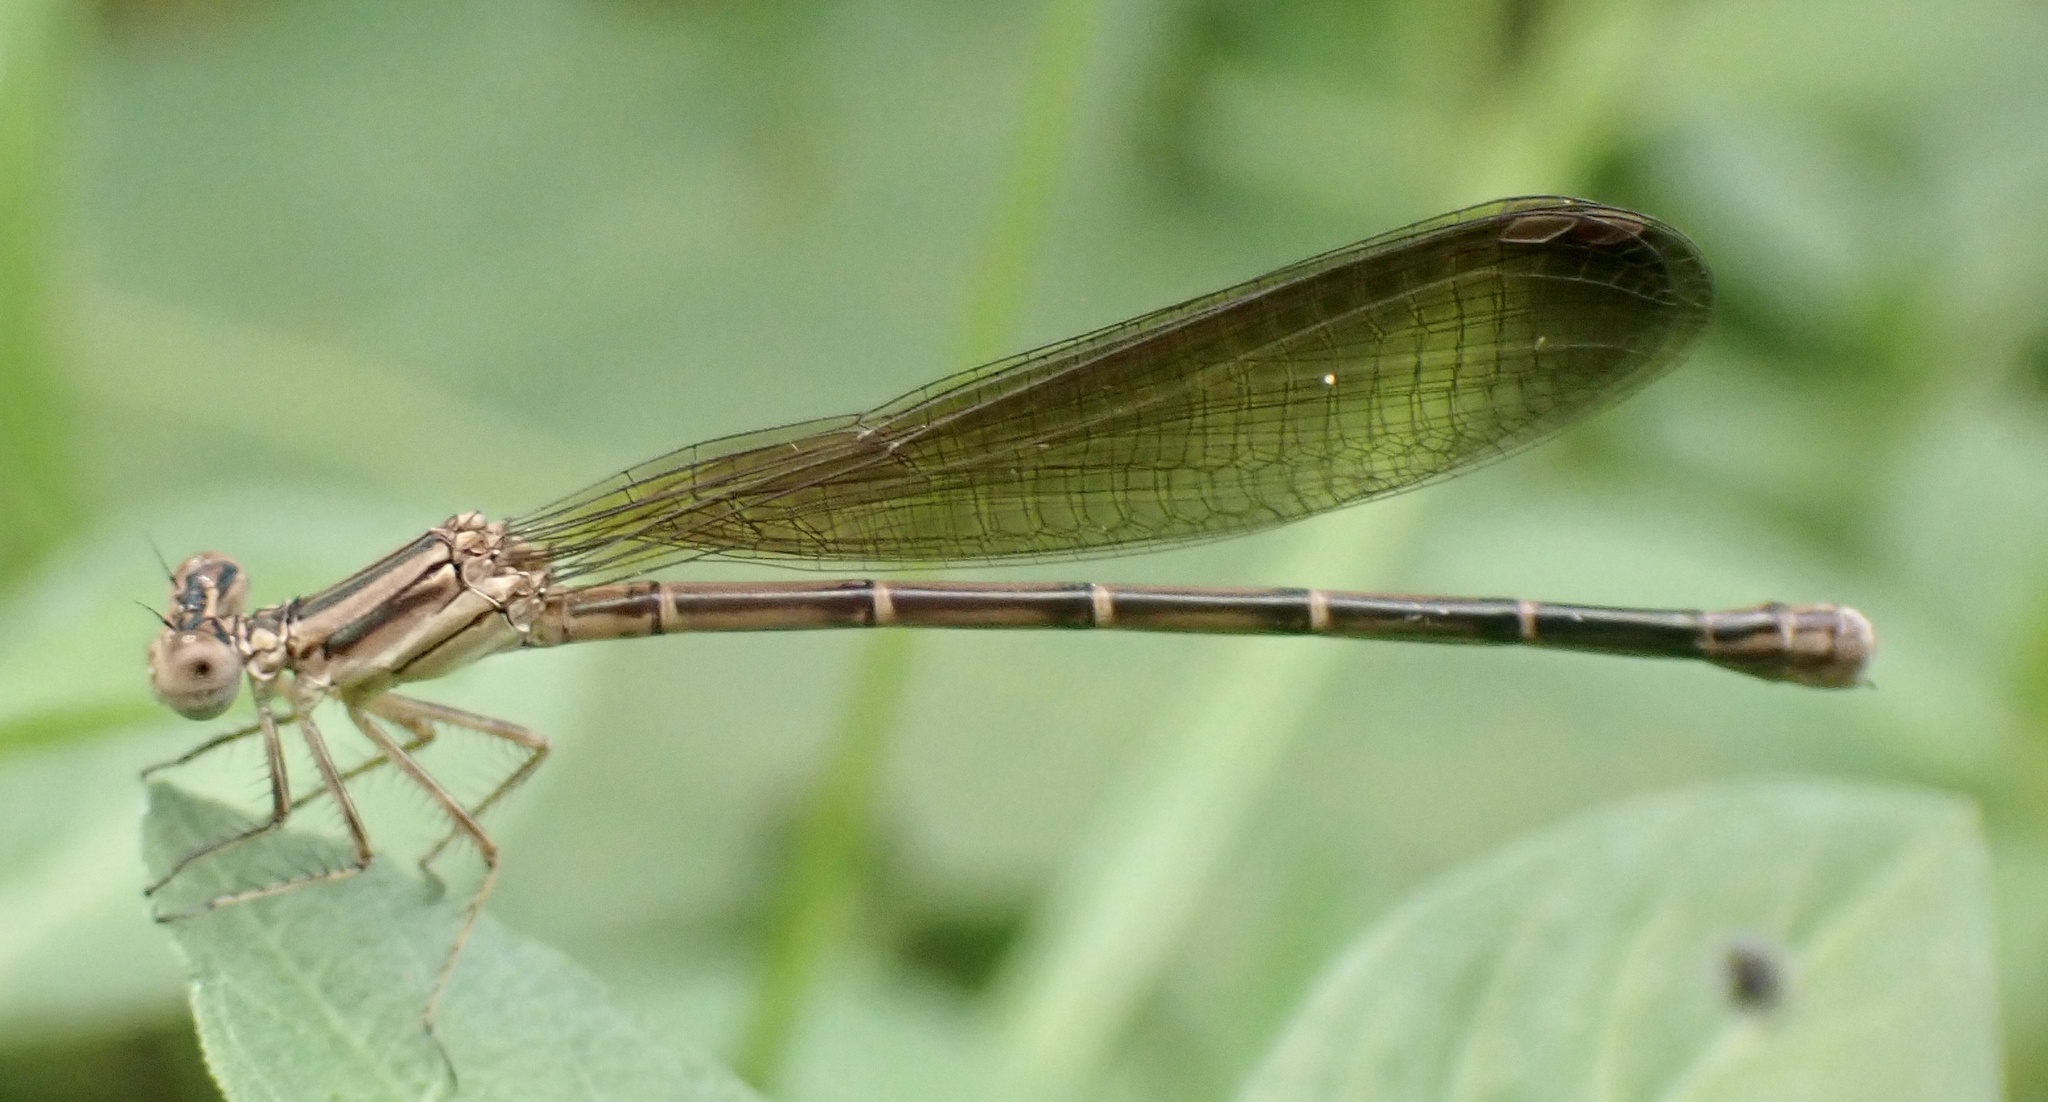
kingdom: Animalia
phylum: Arthropoda
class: Insecta
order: Odonata
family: Coenagrionidae
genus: Argia
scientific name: Argia fumipennis
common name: Variable dancer
